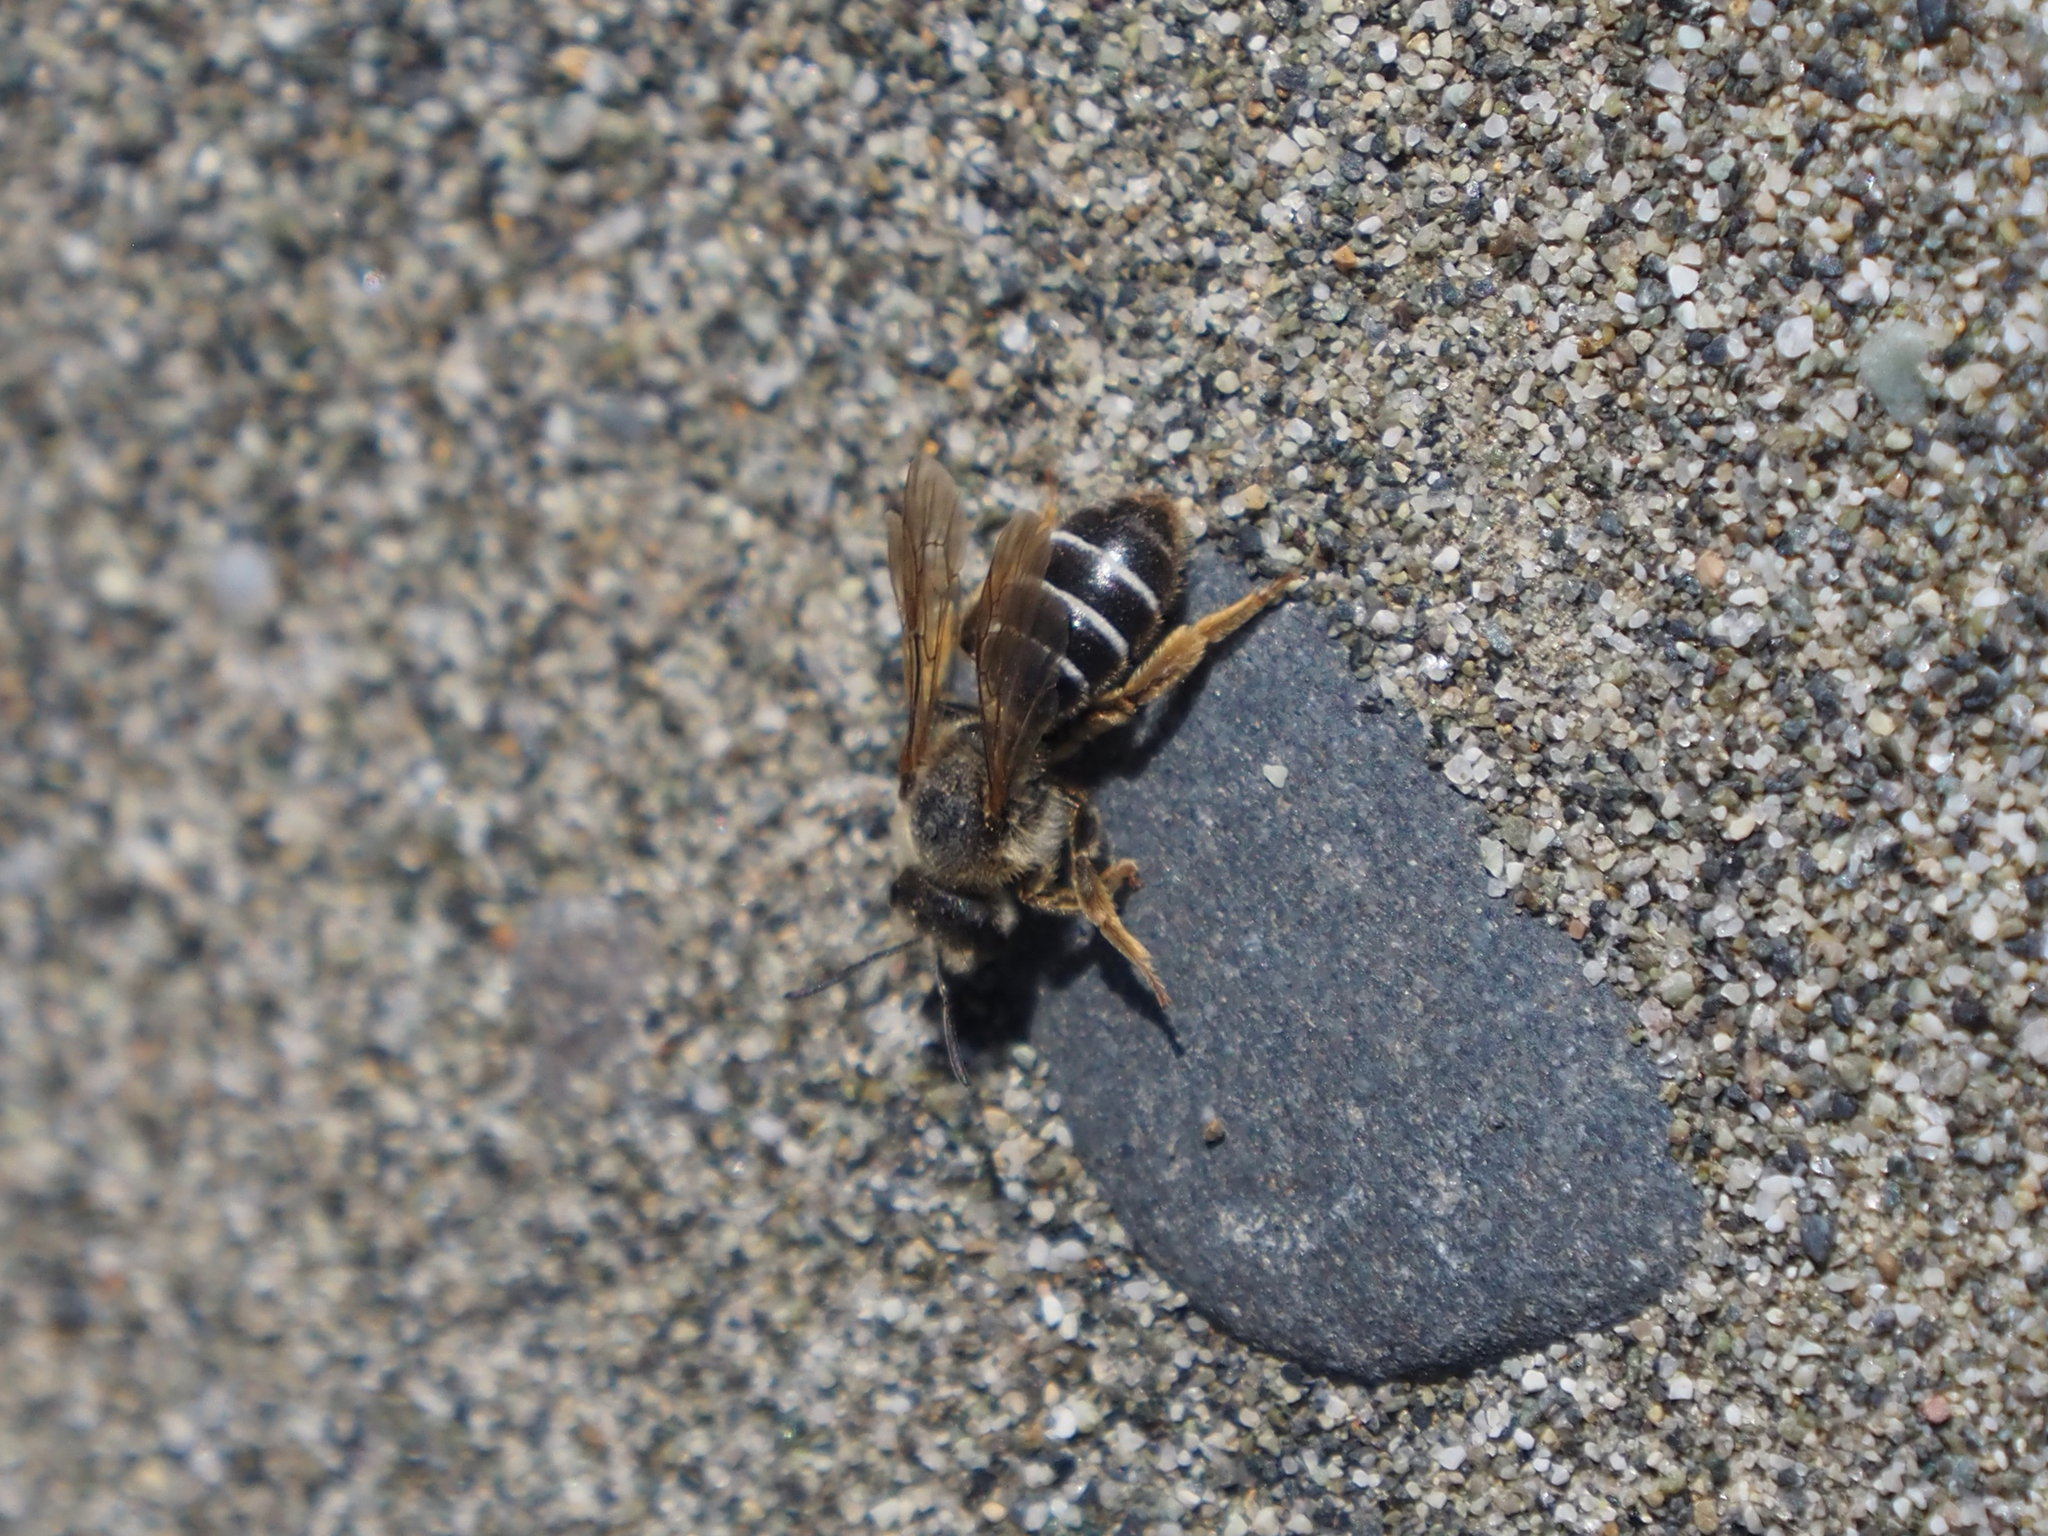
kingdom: Animalia
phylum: Arthropoda
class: Insecta
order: Hymenoptera
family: Halictidae
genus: Halictus
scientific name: Halictus rubicundus
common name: Orange-legged furrow bee
